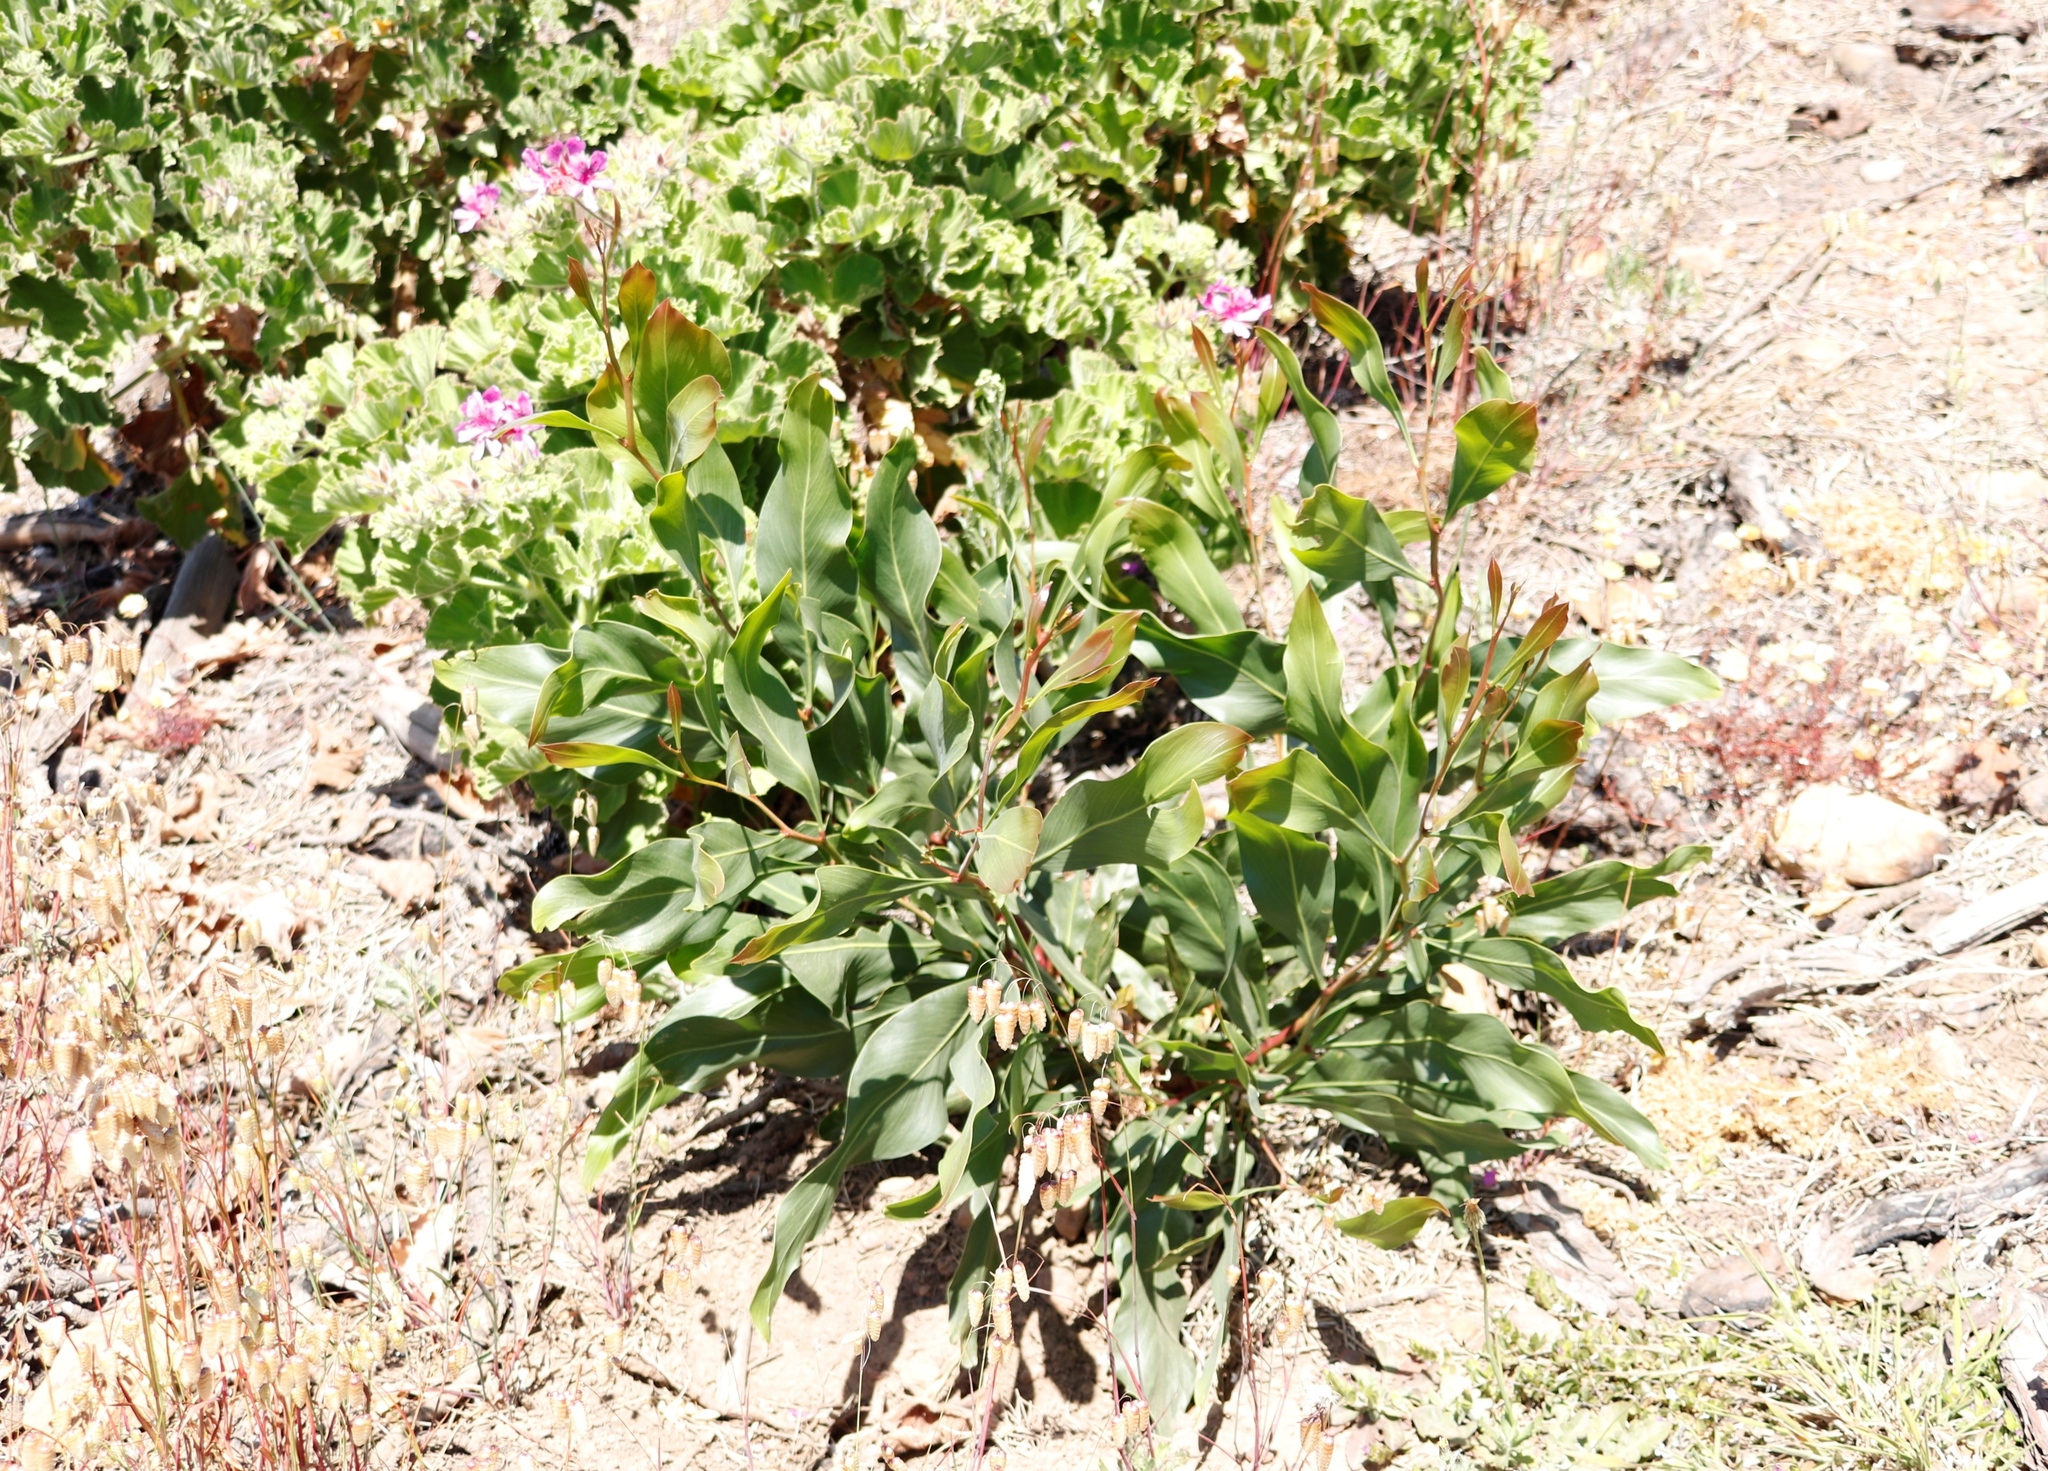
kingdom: Plantae
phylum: Tracheophyta
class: Magnoliopsida
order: Fabales
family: Fabaceae
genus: Acacia
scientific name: Acacia saligna
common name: Orange wattle
